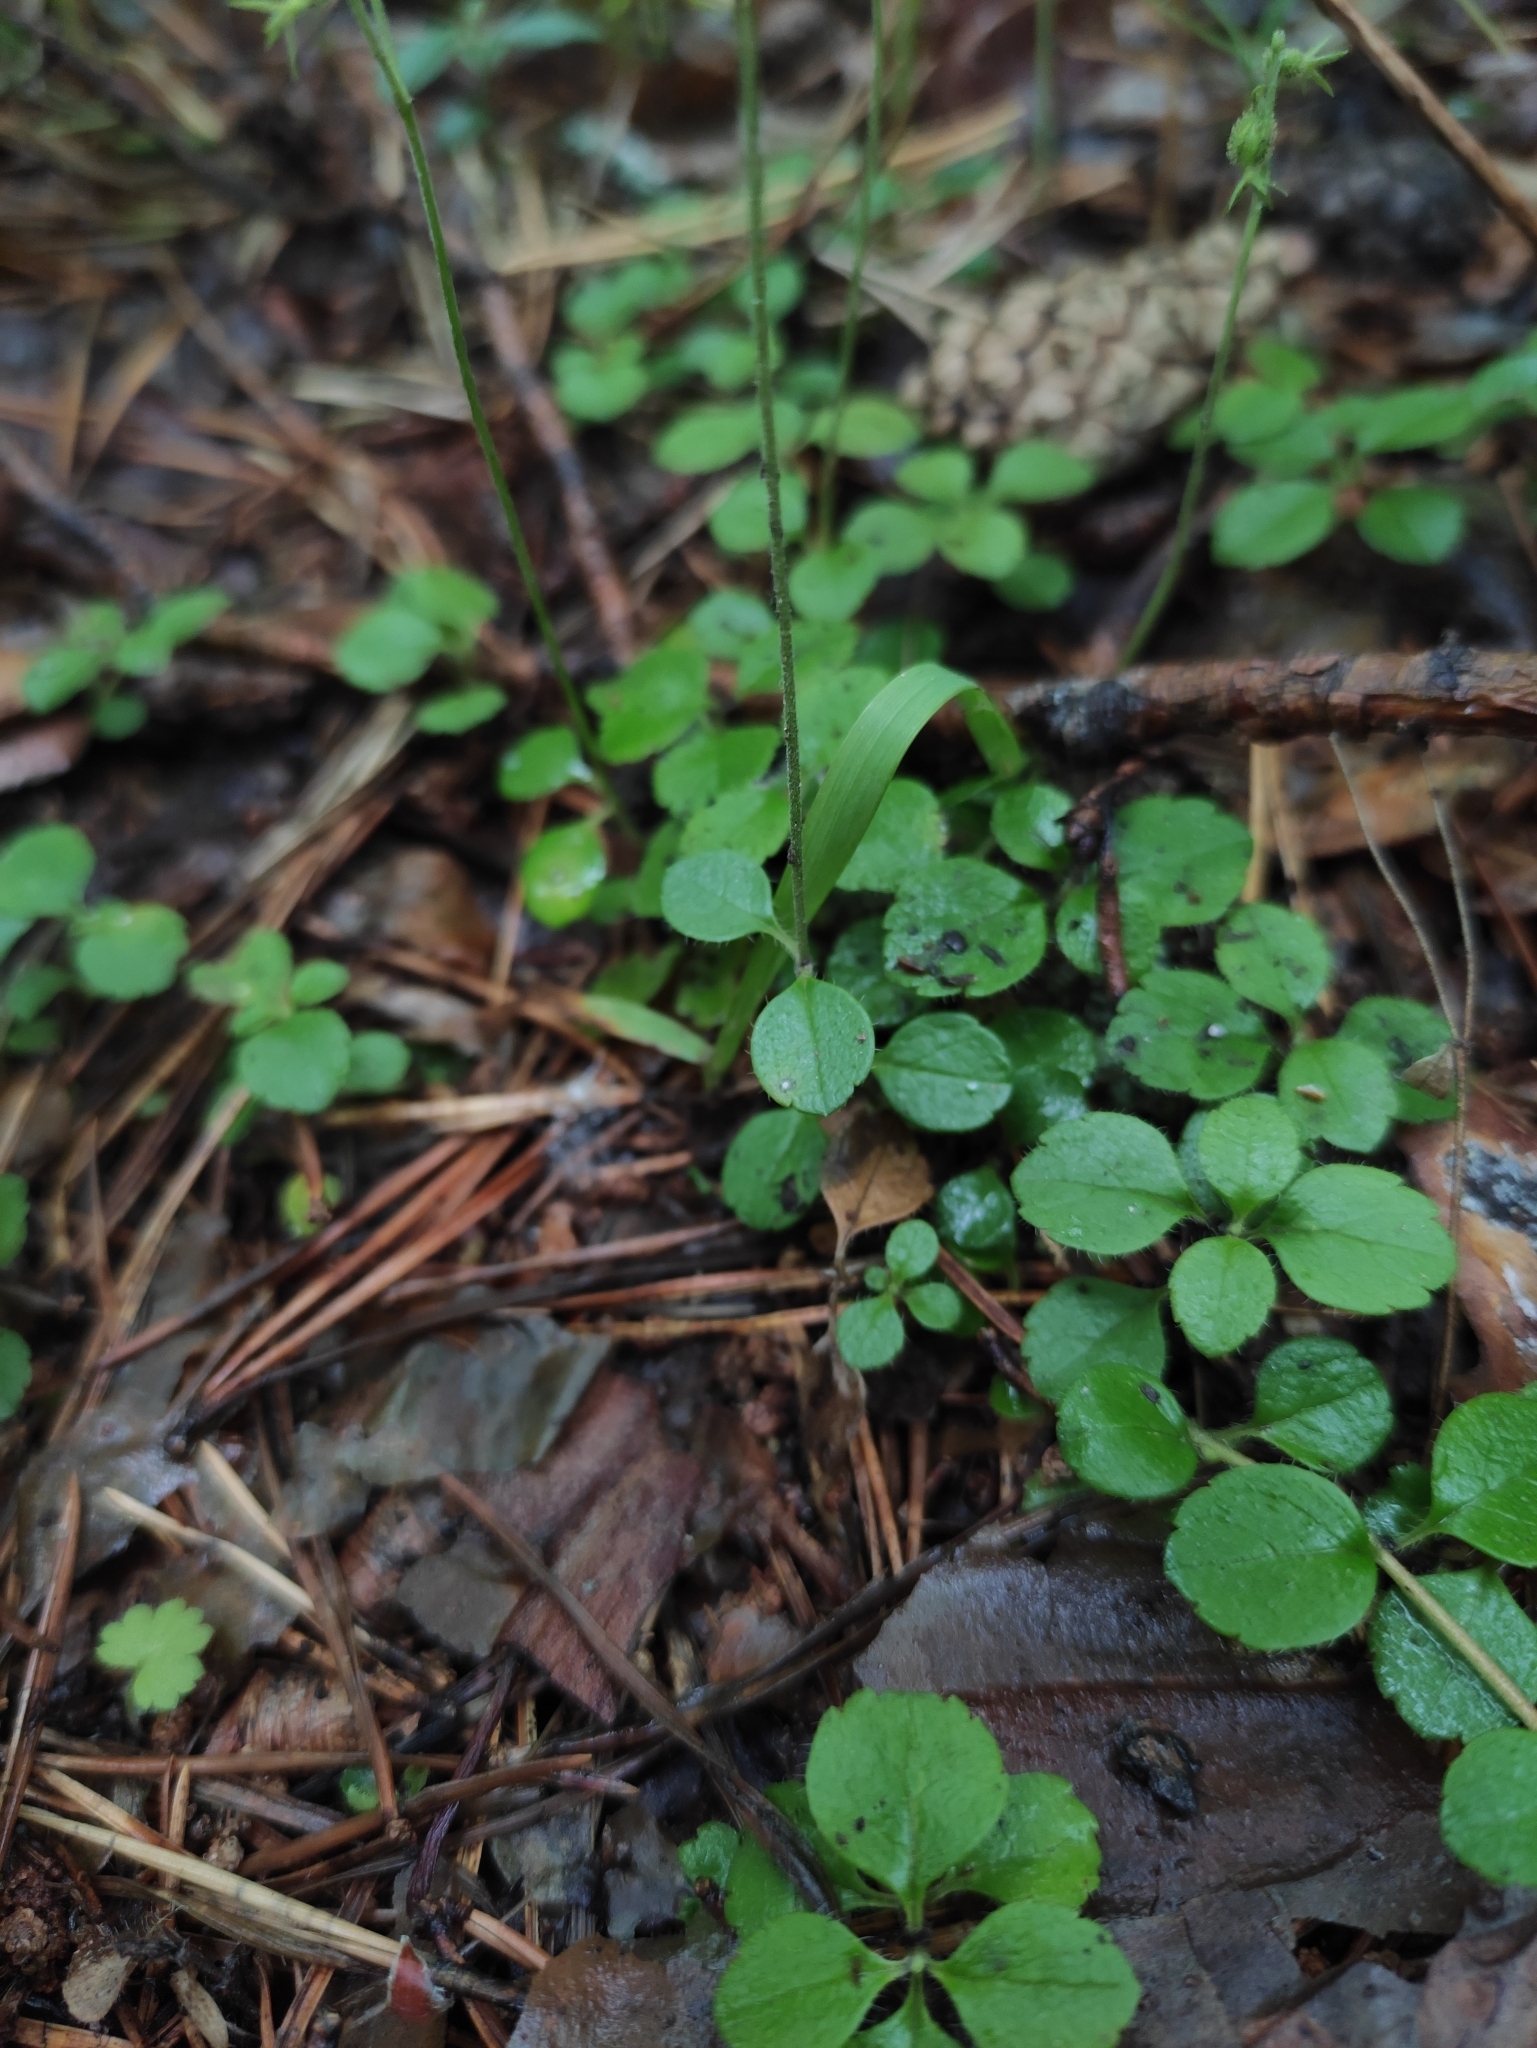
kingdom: Plantae
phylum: Tracheophyta
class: Magnoliopsida
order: Dipsacales
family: Caprifoliaceae
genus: Linnaea
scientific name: Linnaea borealis
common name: Twinflower
